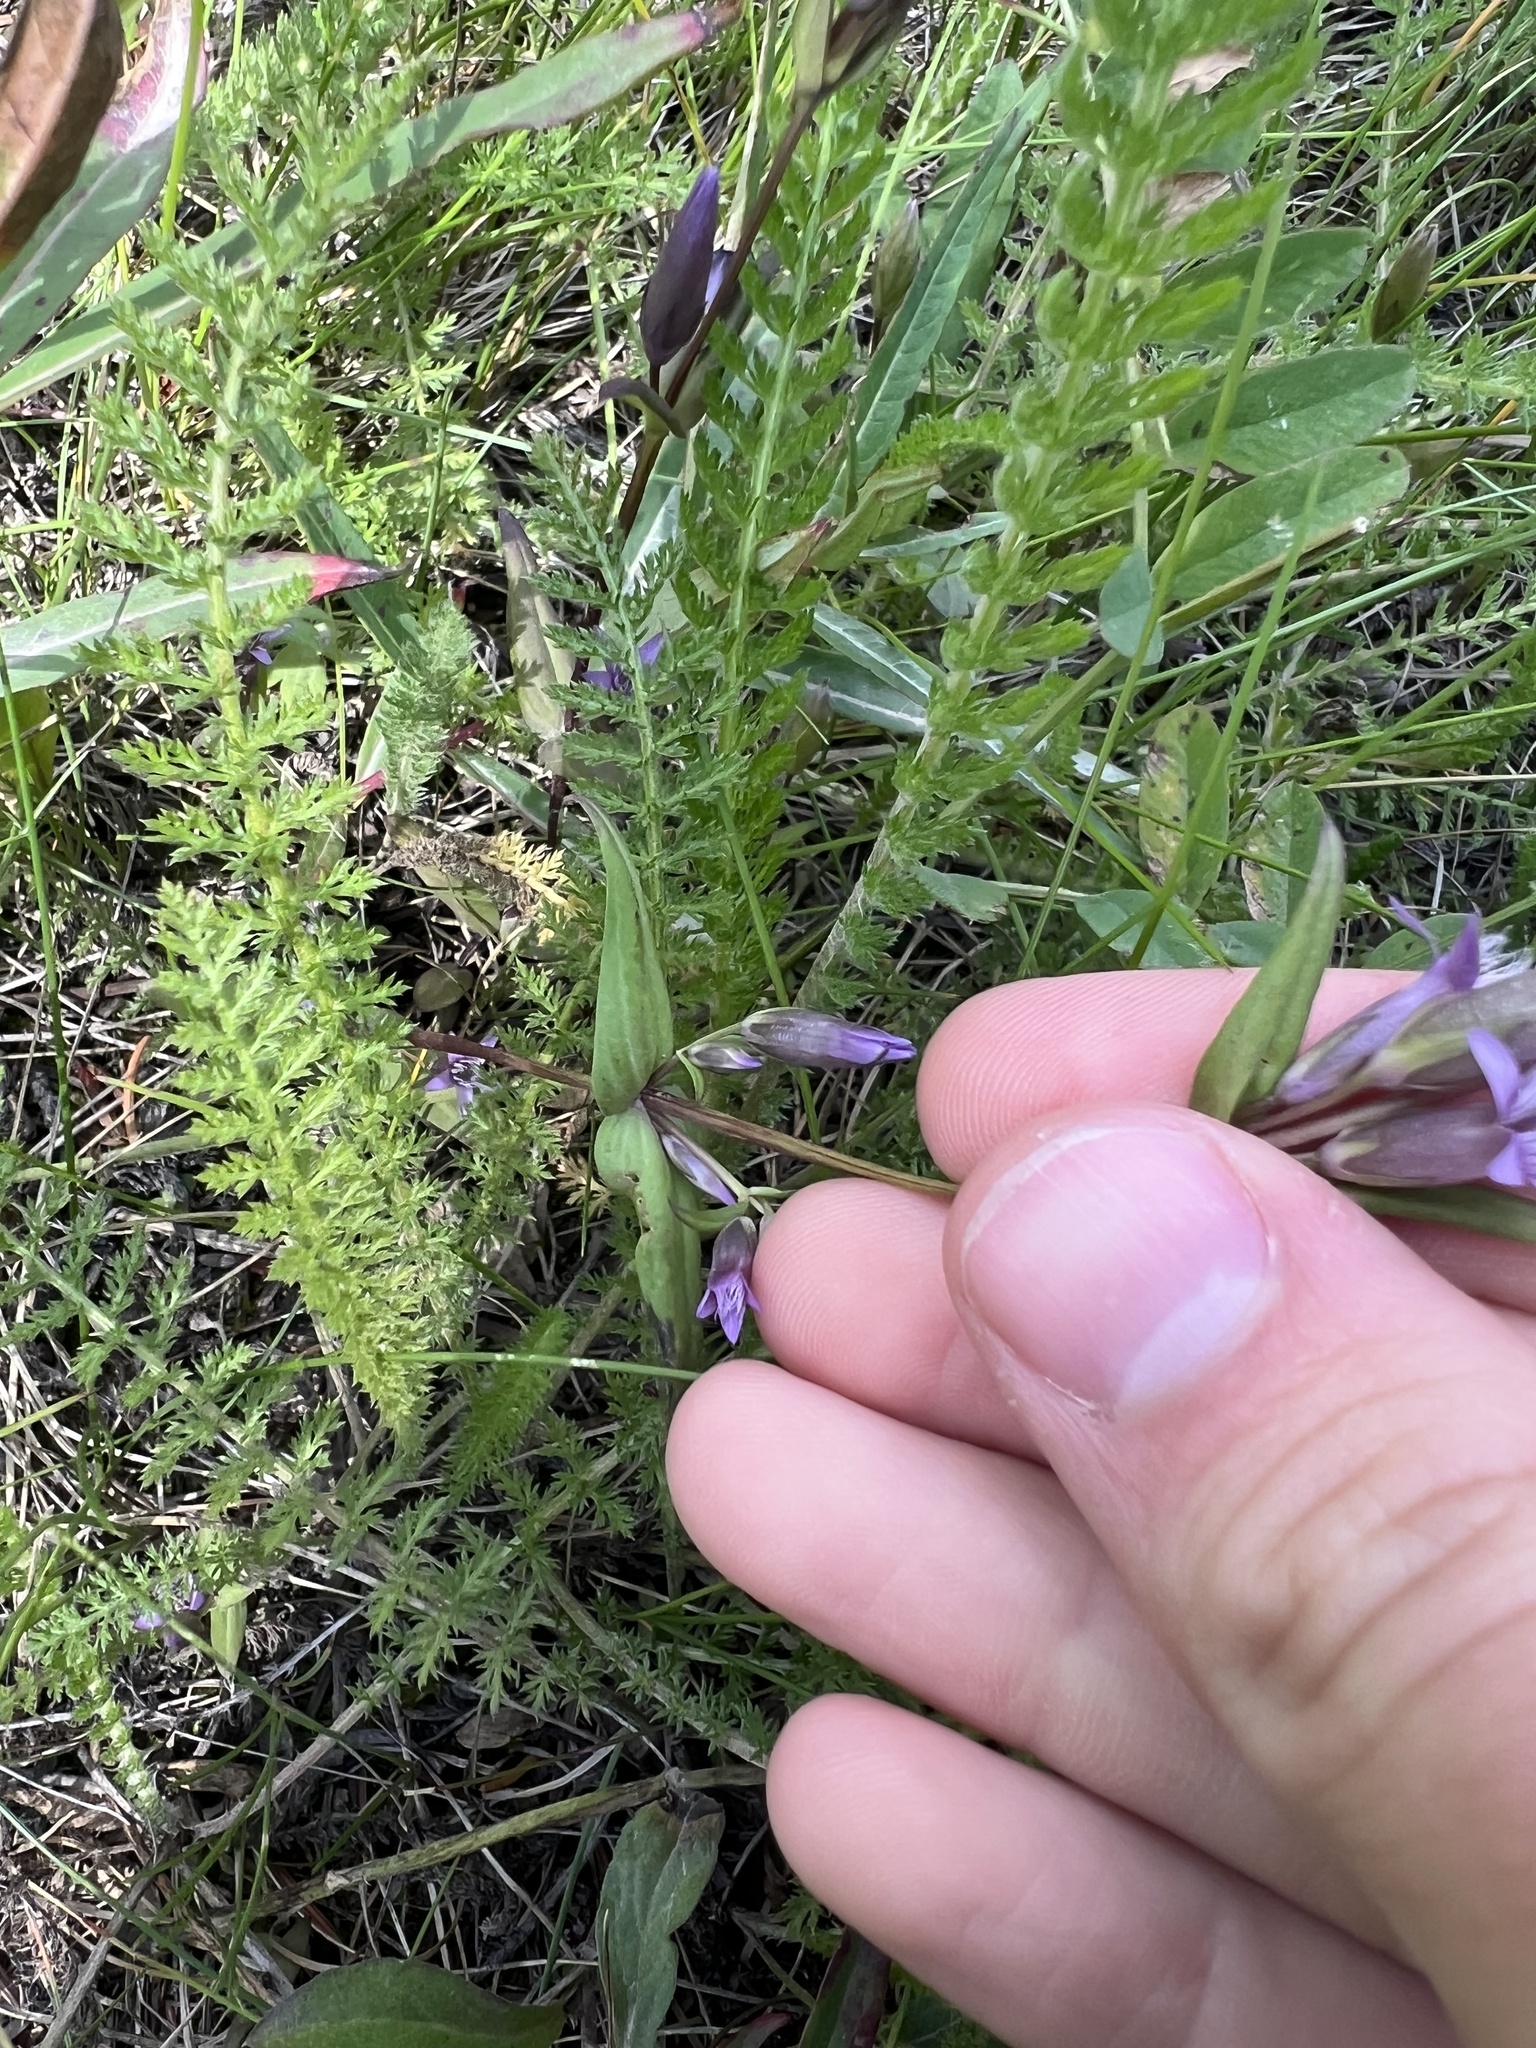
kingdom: Plantae
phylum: Tracheophyta
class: Magnoliopsida
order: Gentianales
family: Gentianaceae
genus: Gentianella
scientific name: Gentianella amarella
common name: Autumn gentian
